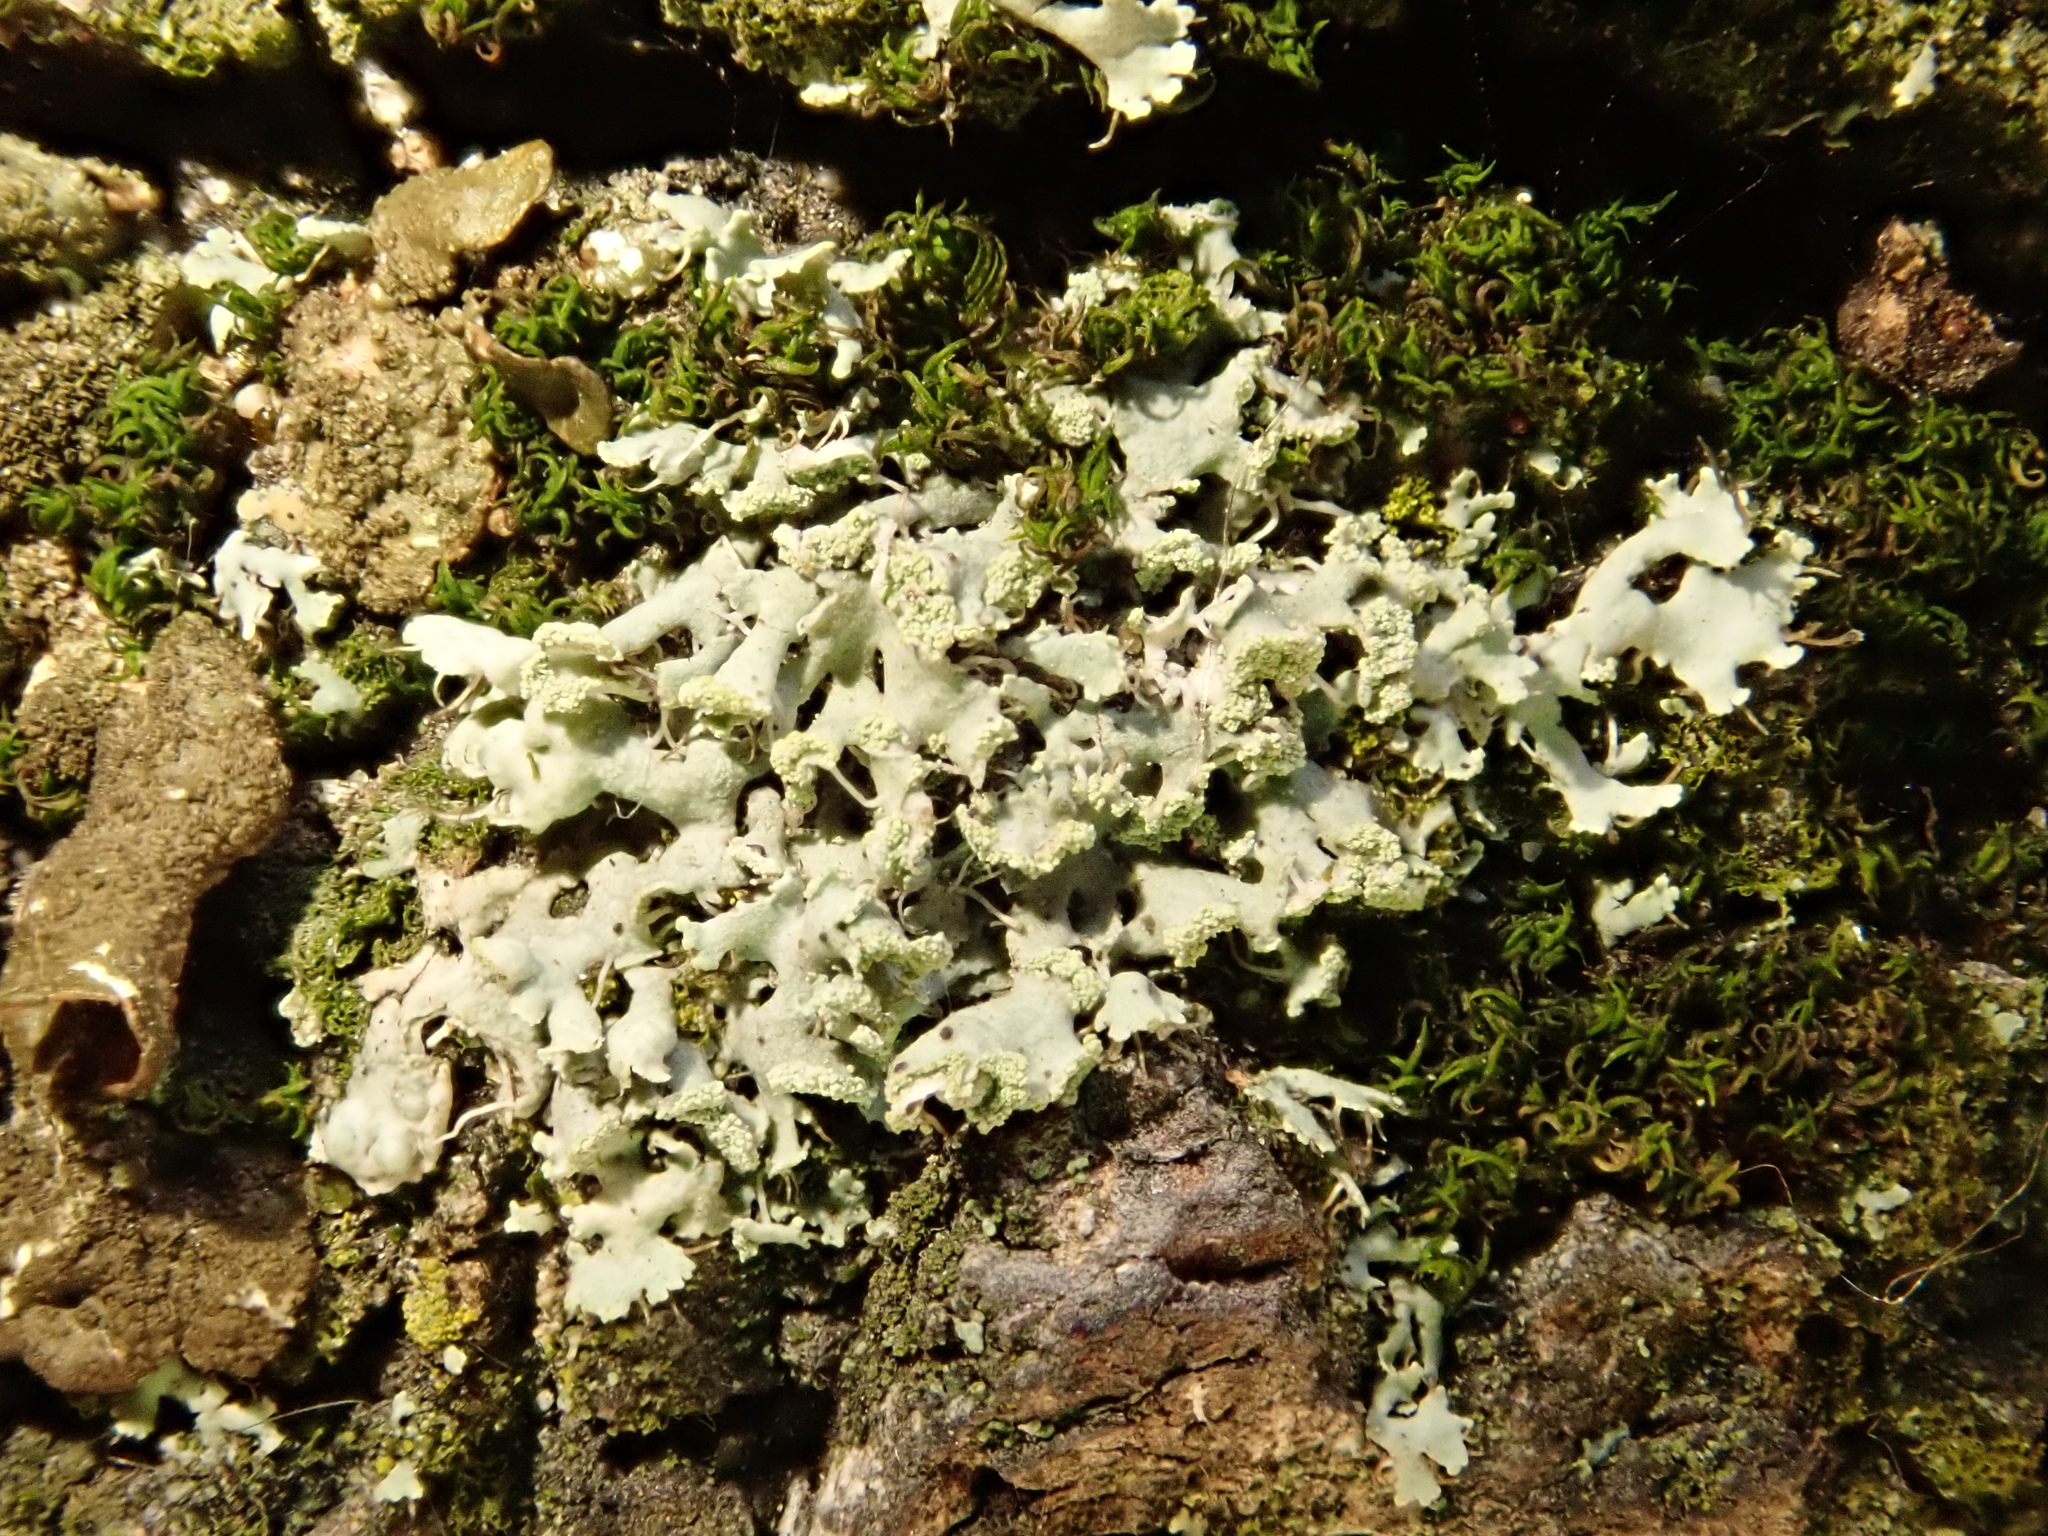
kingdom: Fungi
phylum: Ascomycota
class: Lecanoromycetes
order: Caliciales
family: Physciaceae
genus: Physcia
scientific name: Physcia tenella
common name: Fringed rosette lichen
